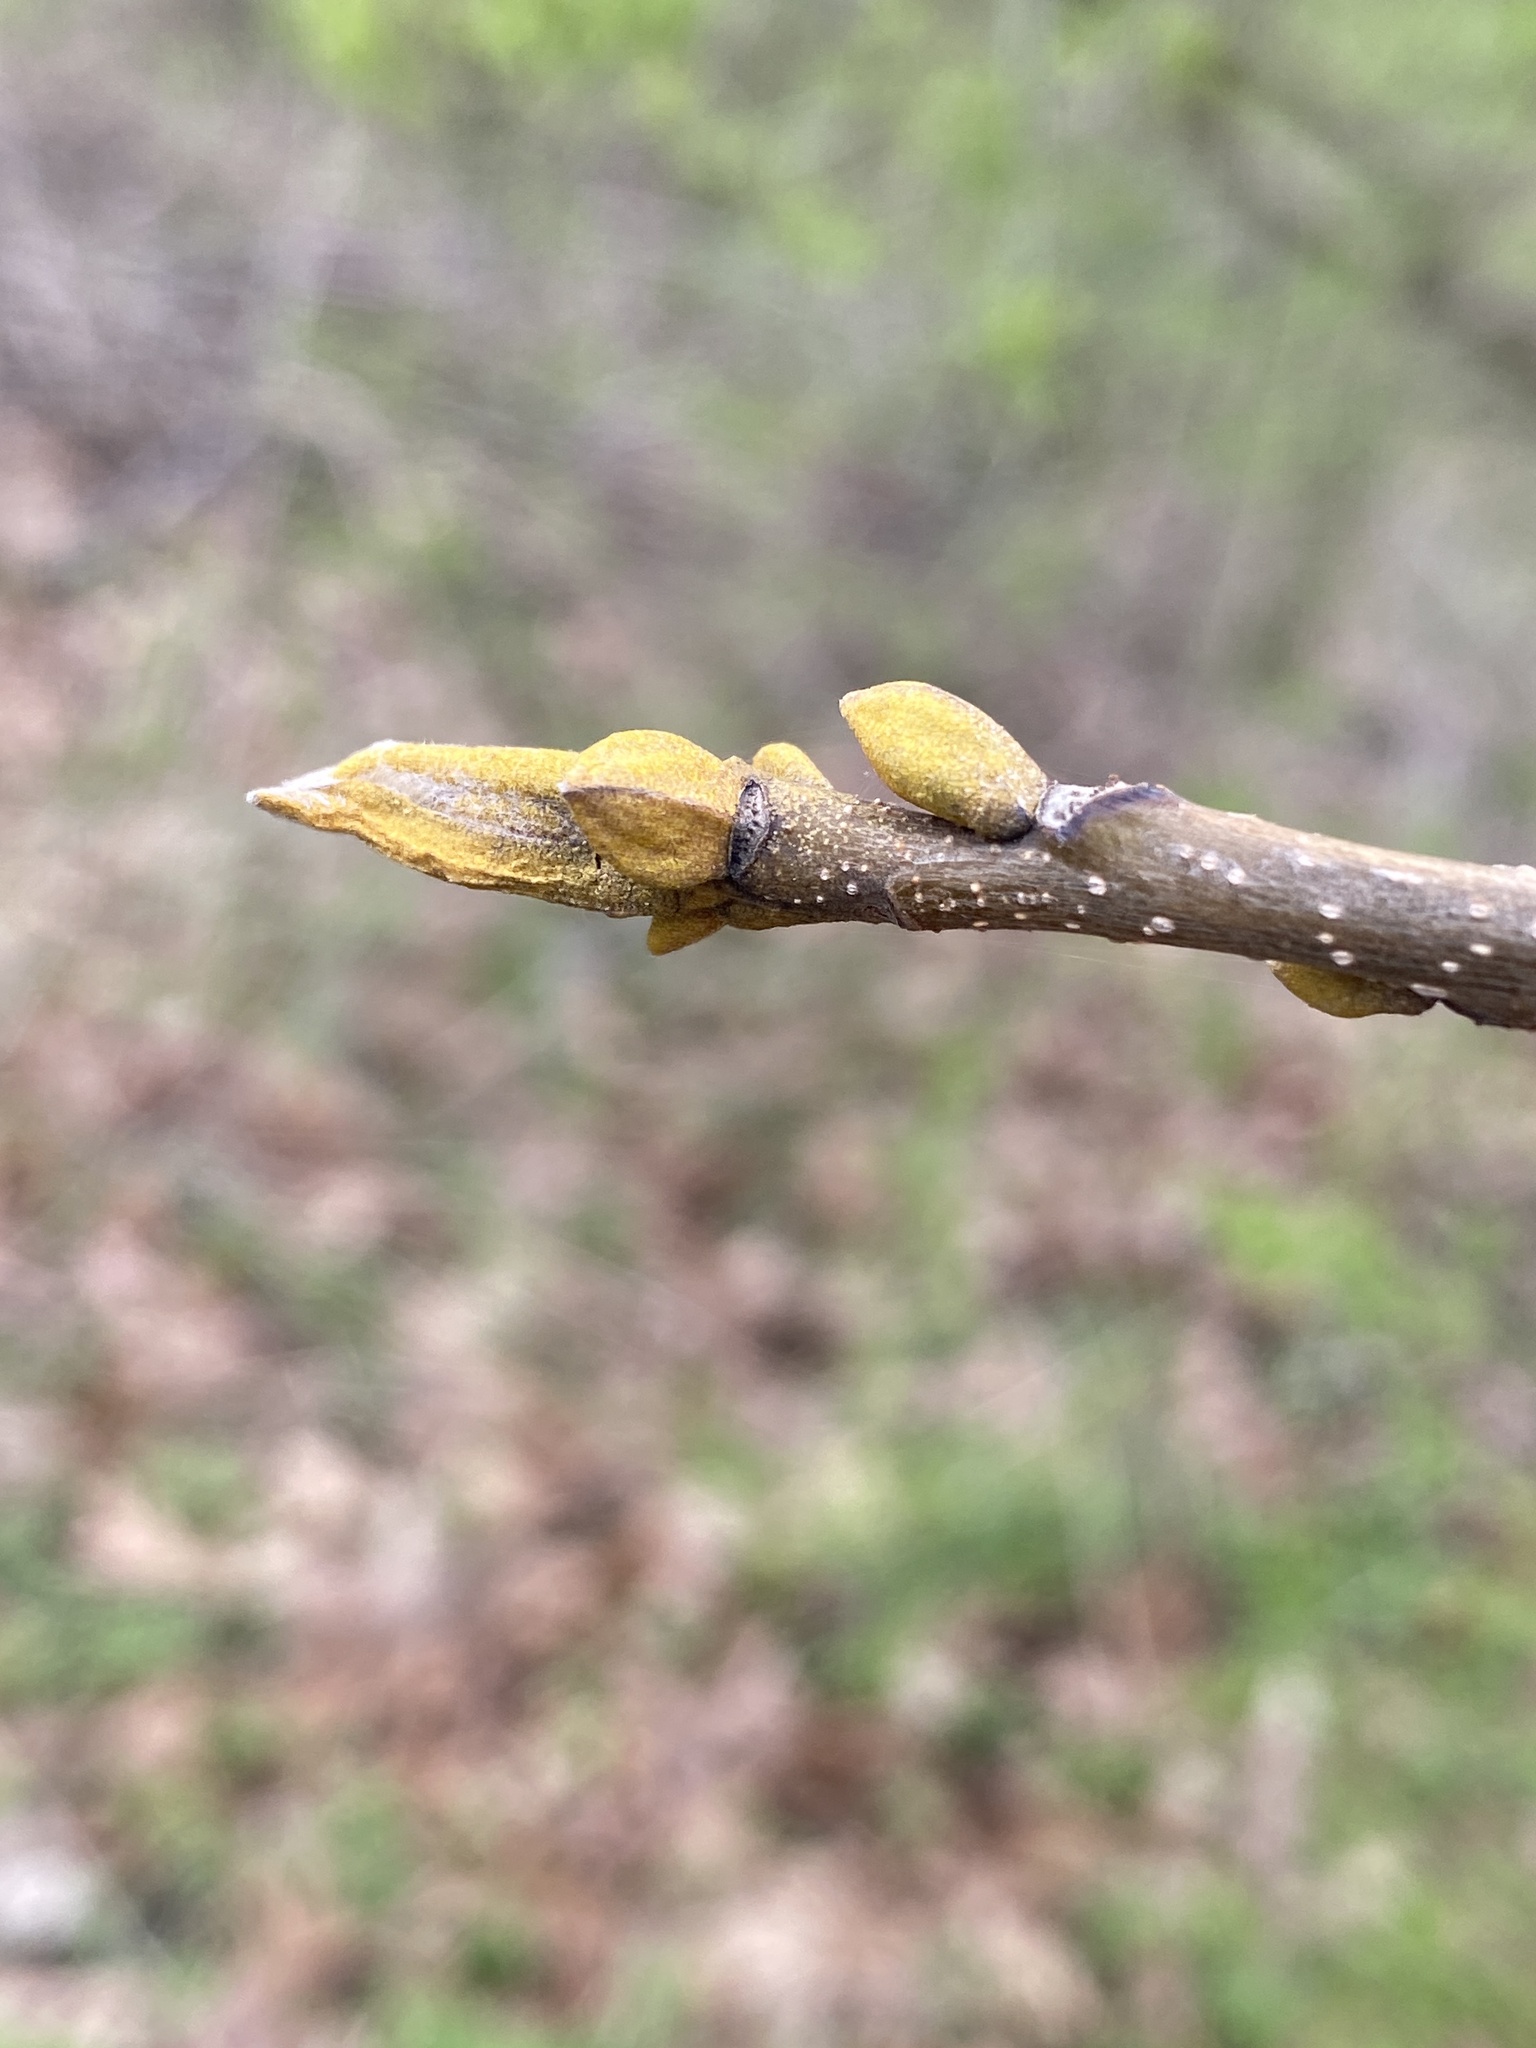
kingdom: Plantae
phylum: Tracheophyta
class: Magnoliopsida
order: Fagales
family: Juglandaceae
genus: Carya
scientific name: Carya cordiformis
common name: Bitternut hickory
